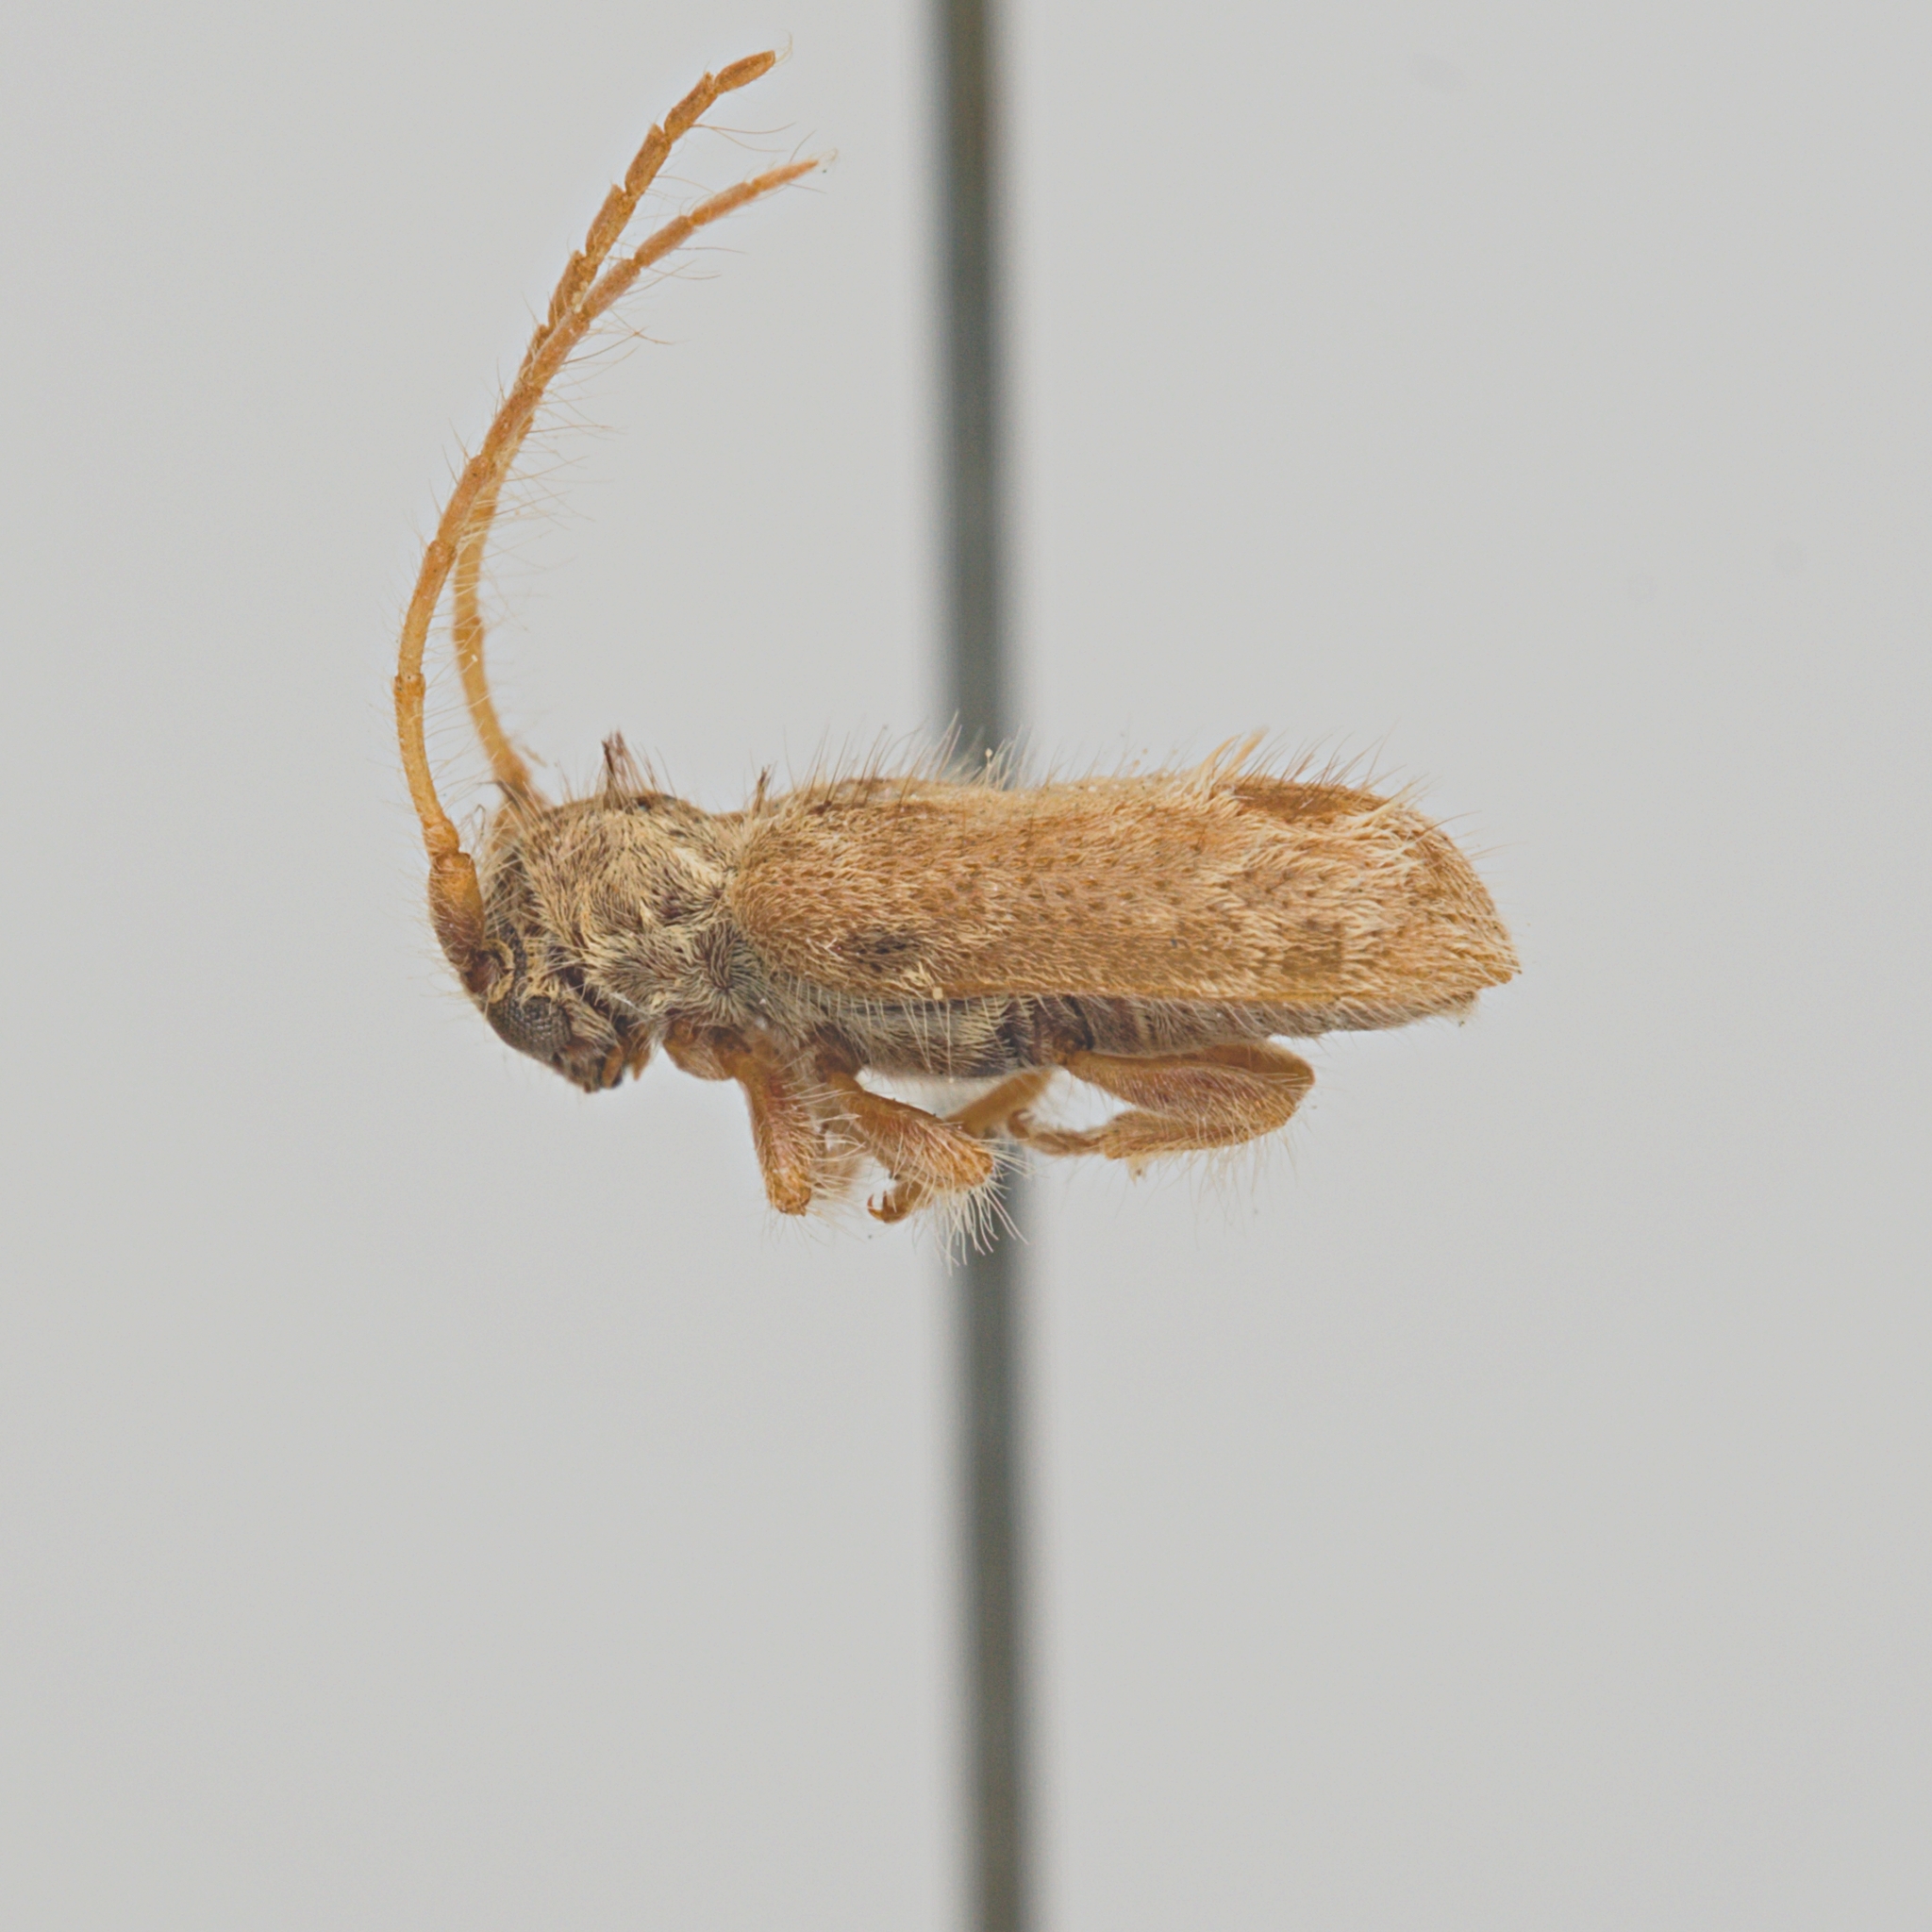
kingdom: Animalia
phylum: Arthropoda
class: Insecta
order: Coleoptera
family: Cerambycidae
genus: Desmiphora
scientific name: Desmiphora aegrota
